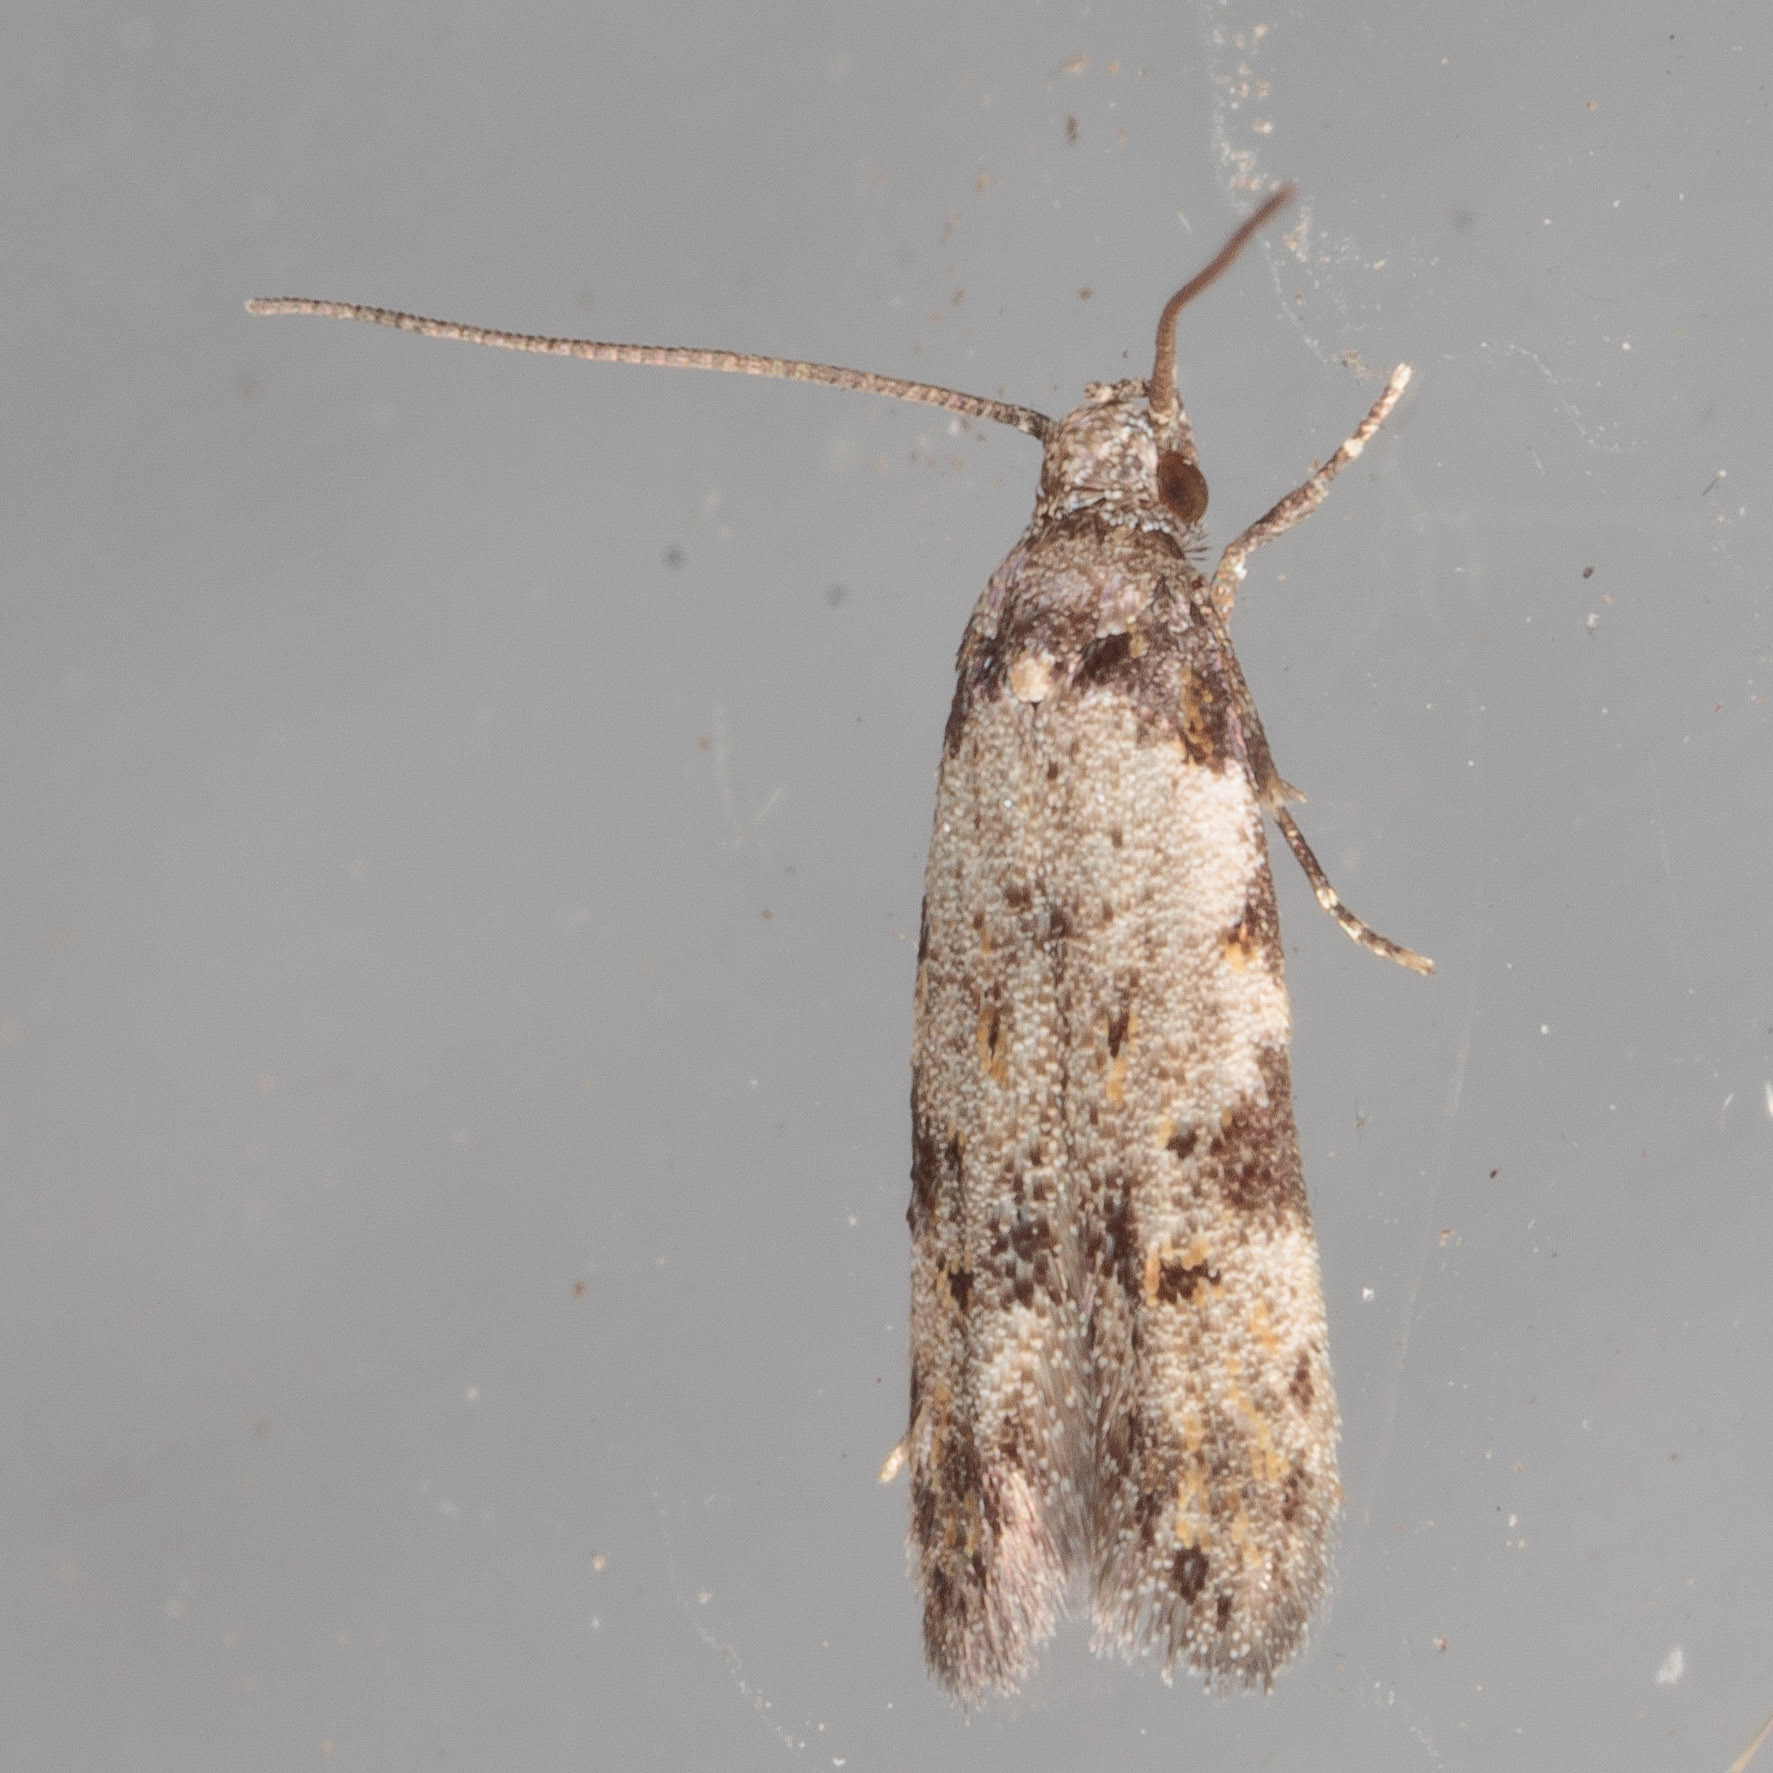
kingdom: Animalia
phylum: Arthropoda
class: Insecta
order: Lepidoptera
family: Autostichidae
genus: Taygete
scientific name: Taygete attributella
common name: Triangle-marked twirler moth
